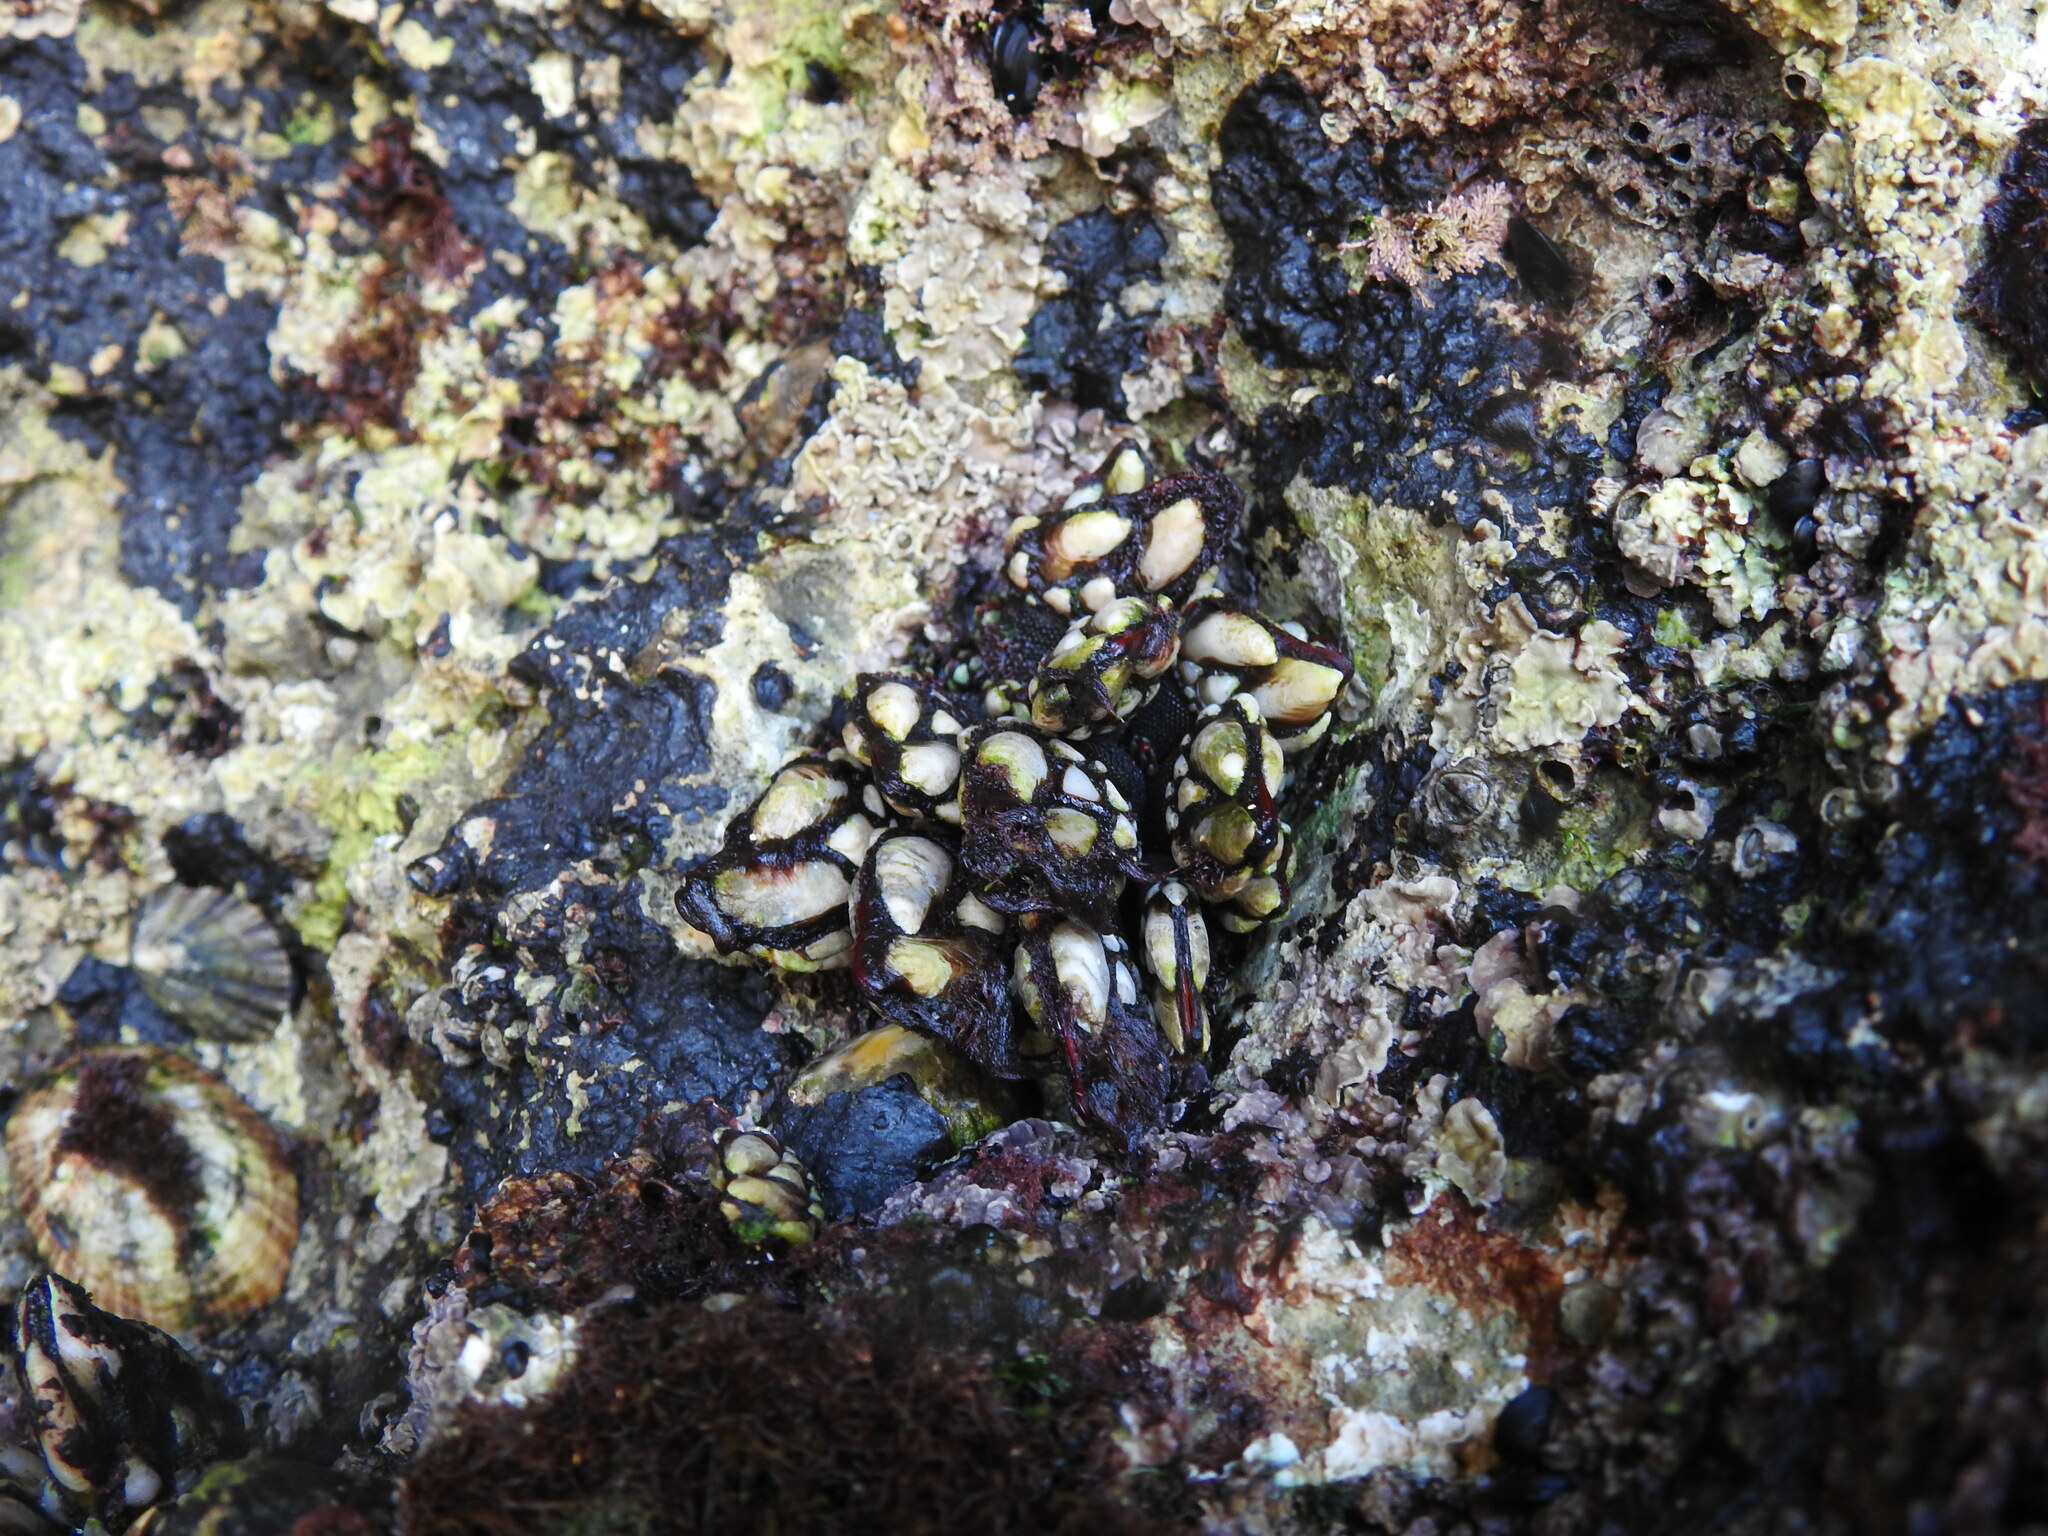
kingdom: Animalia
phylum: Arthropoda
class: Maxillopoda
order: Pedunculata
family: Pollicipedidae
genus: Pollicipes
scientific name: Pollicipes pollicipes
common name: Gooseneck barnacle
